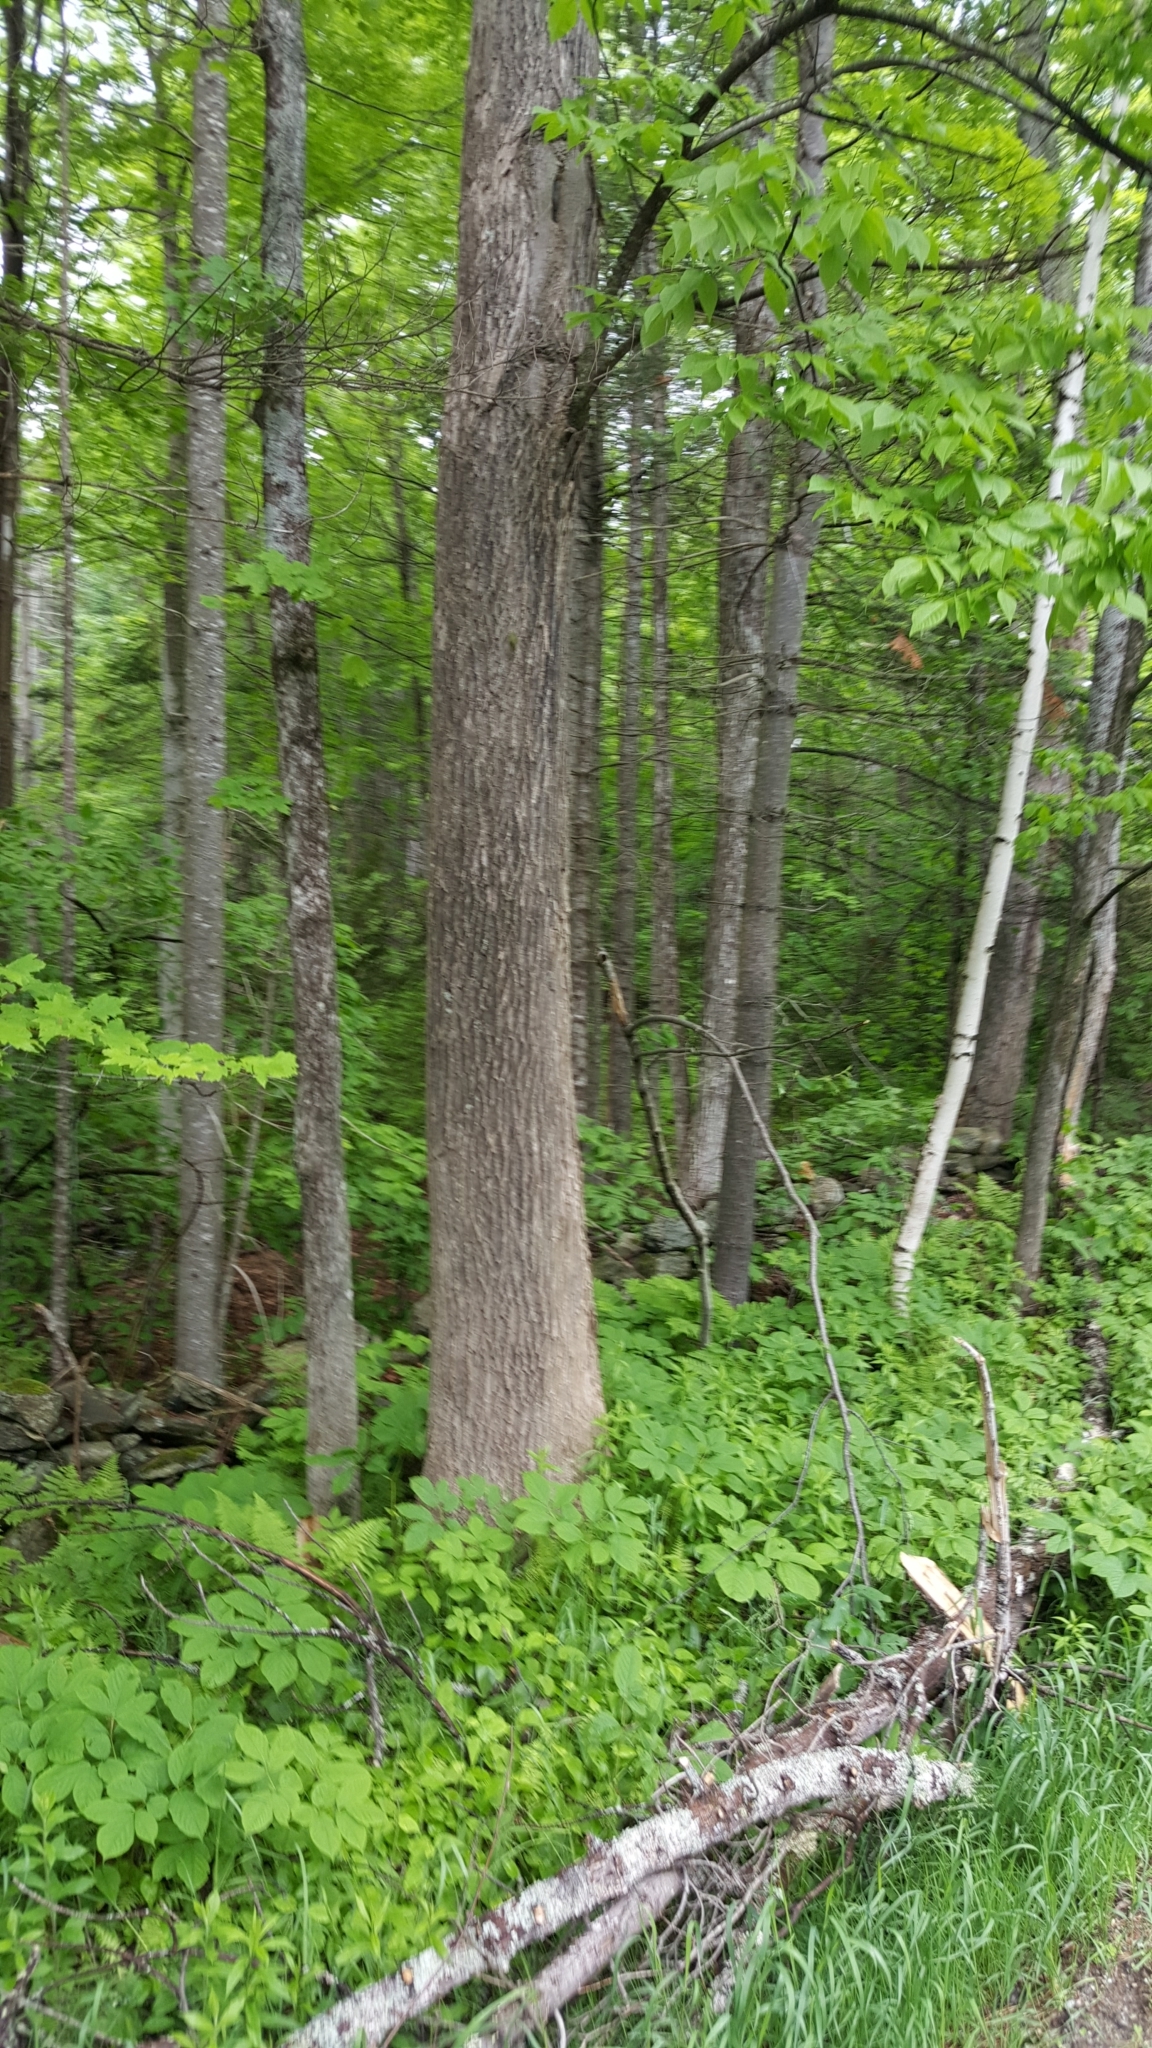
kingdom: Plantae
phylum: Tracheophyta
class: Magnoliopsida
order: Lamiales
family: Oleaceae
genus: Fraxinus
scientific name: Fraxinus americana
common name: White ash
